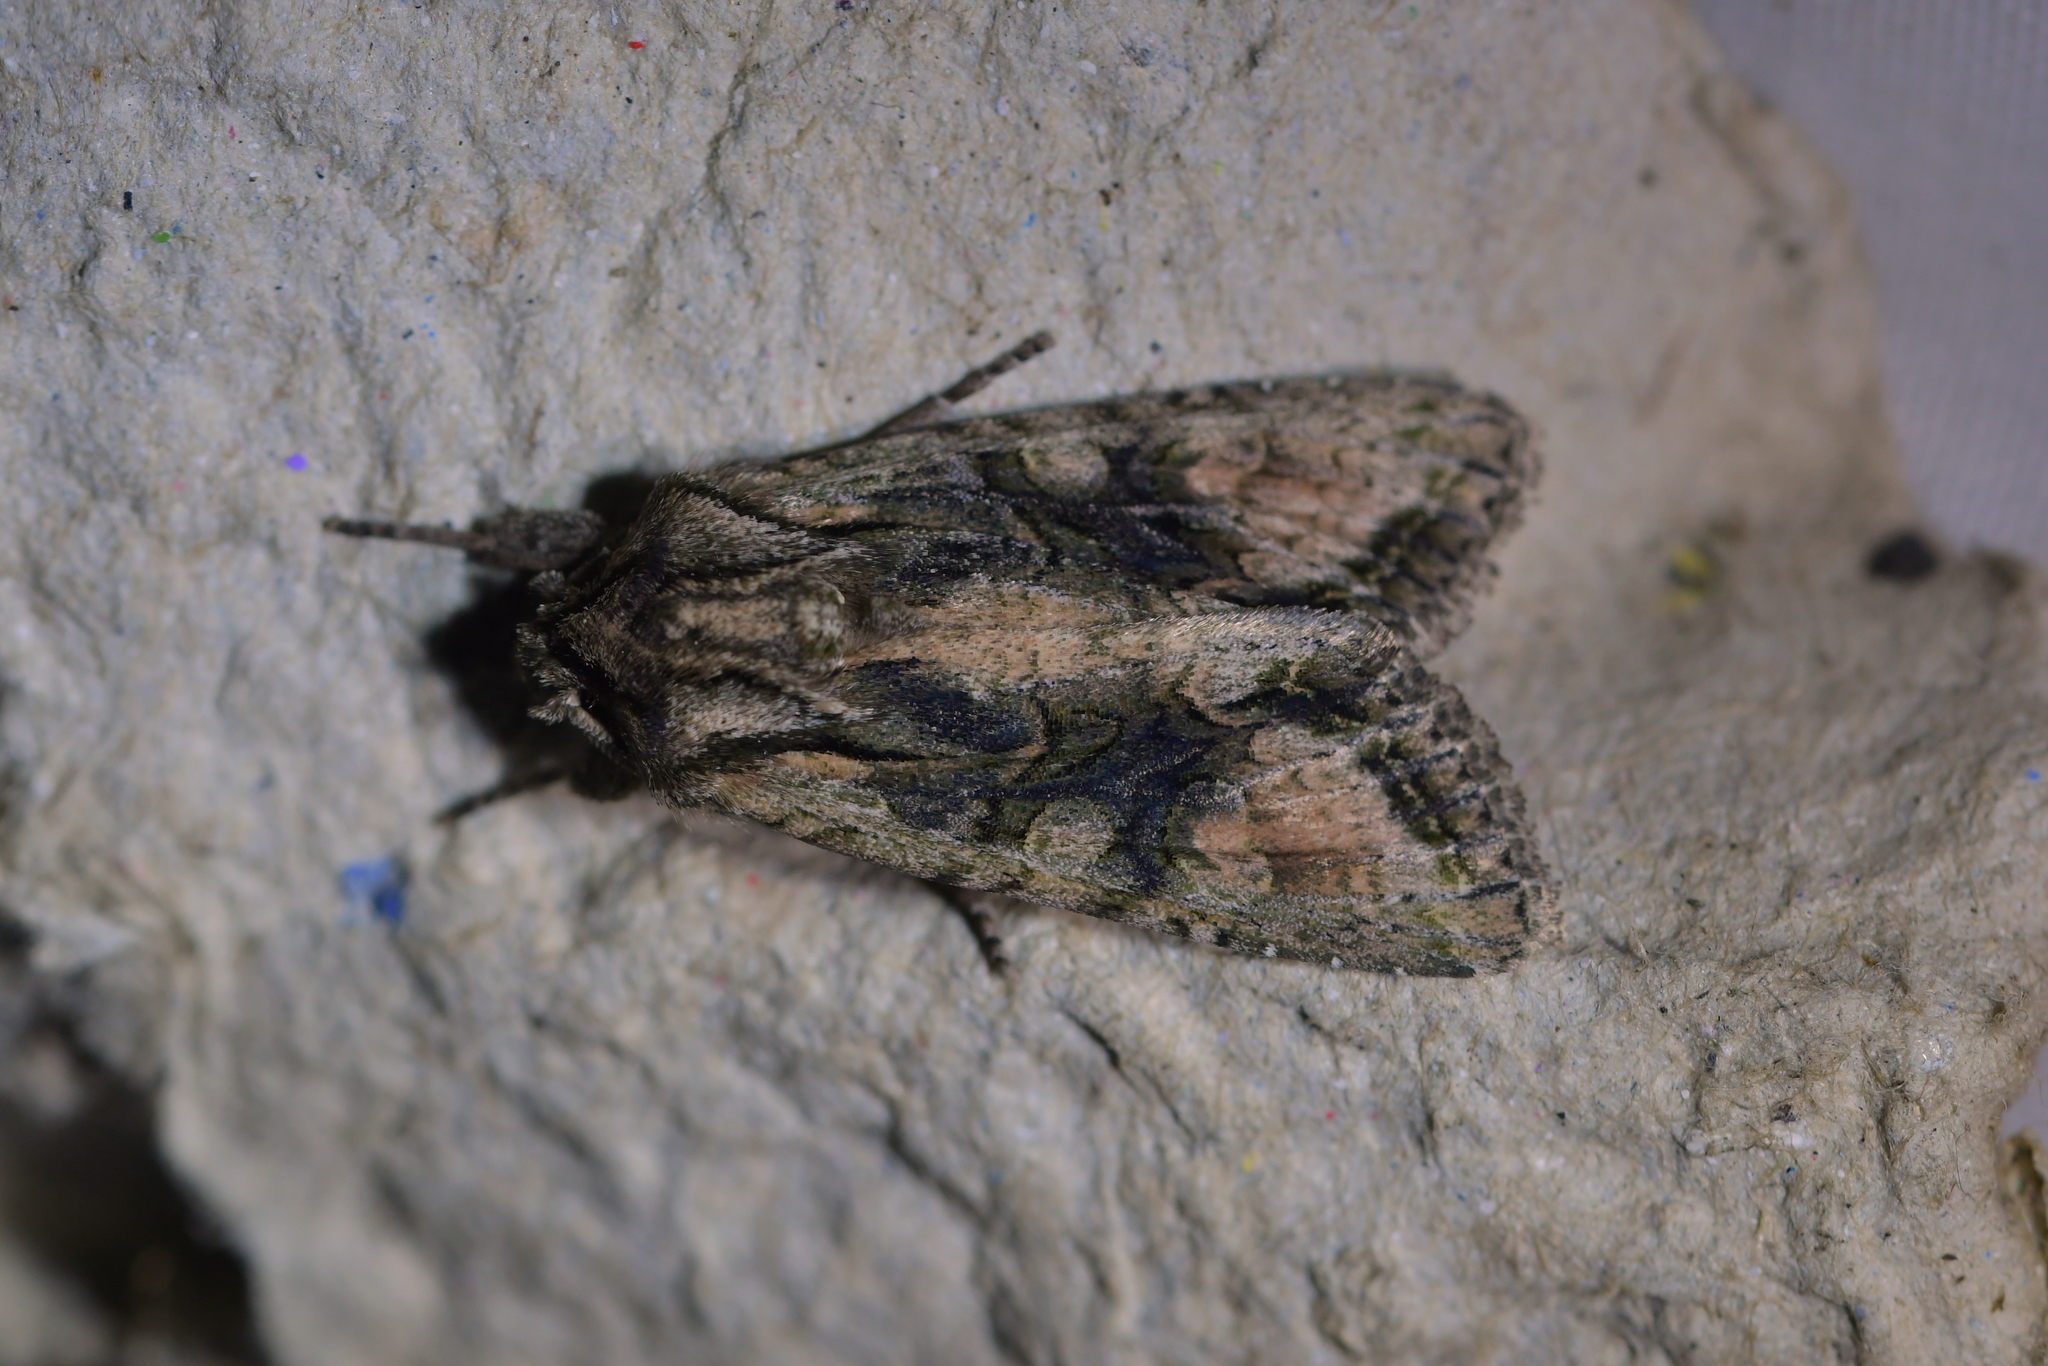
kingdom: Animalia
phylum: Arthropoda
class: Insecta
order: Lepidoptera
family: Noctuidae
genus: Ichneutica
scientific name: Ichneutica mutans
